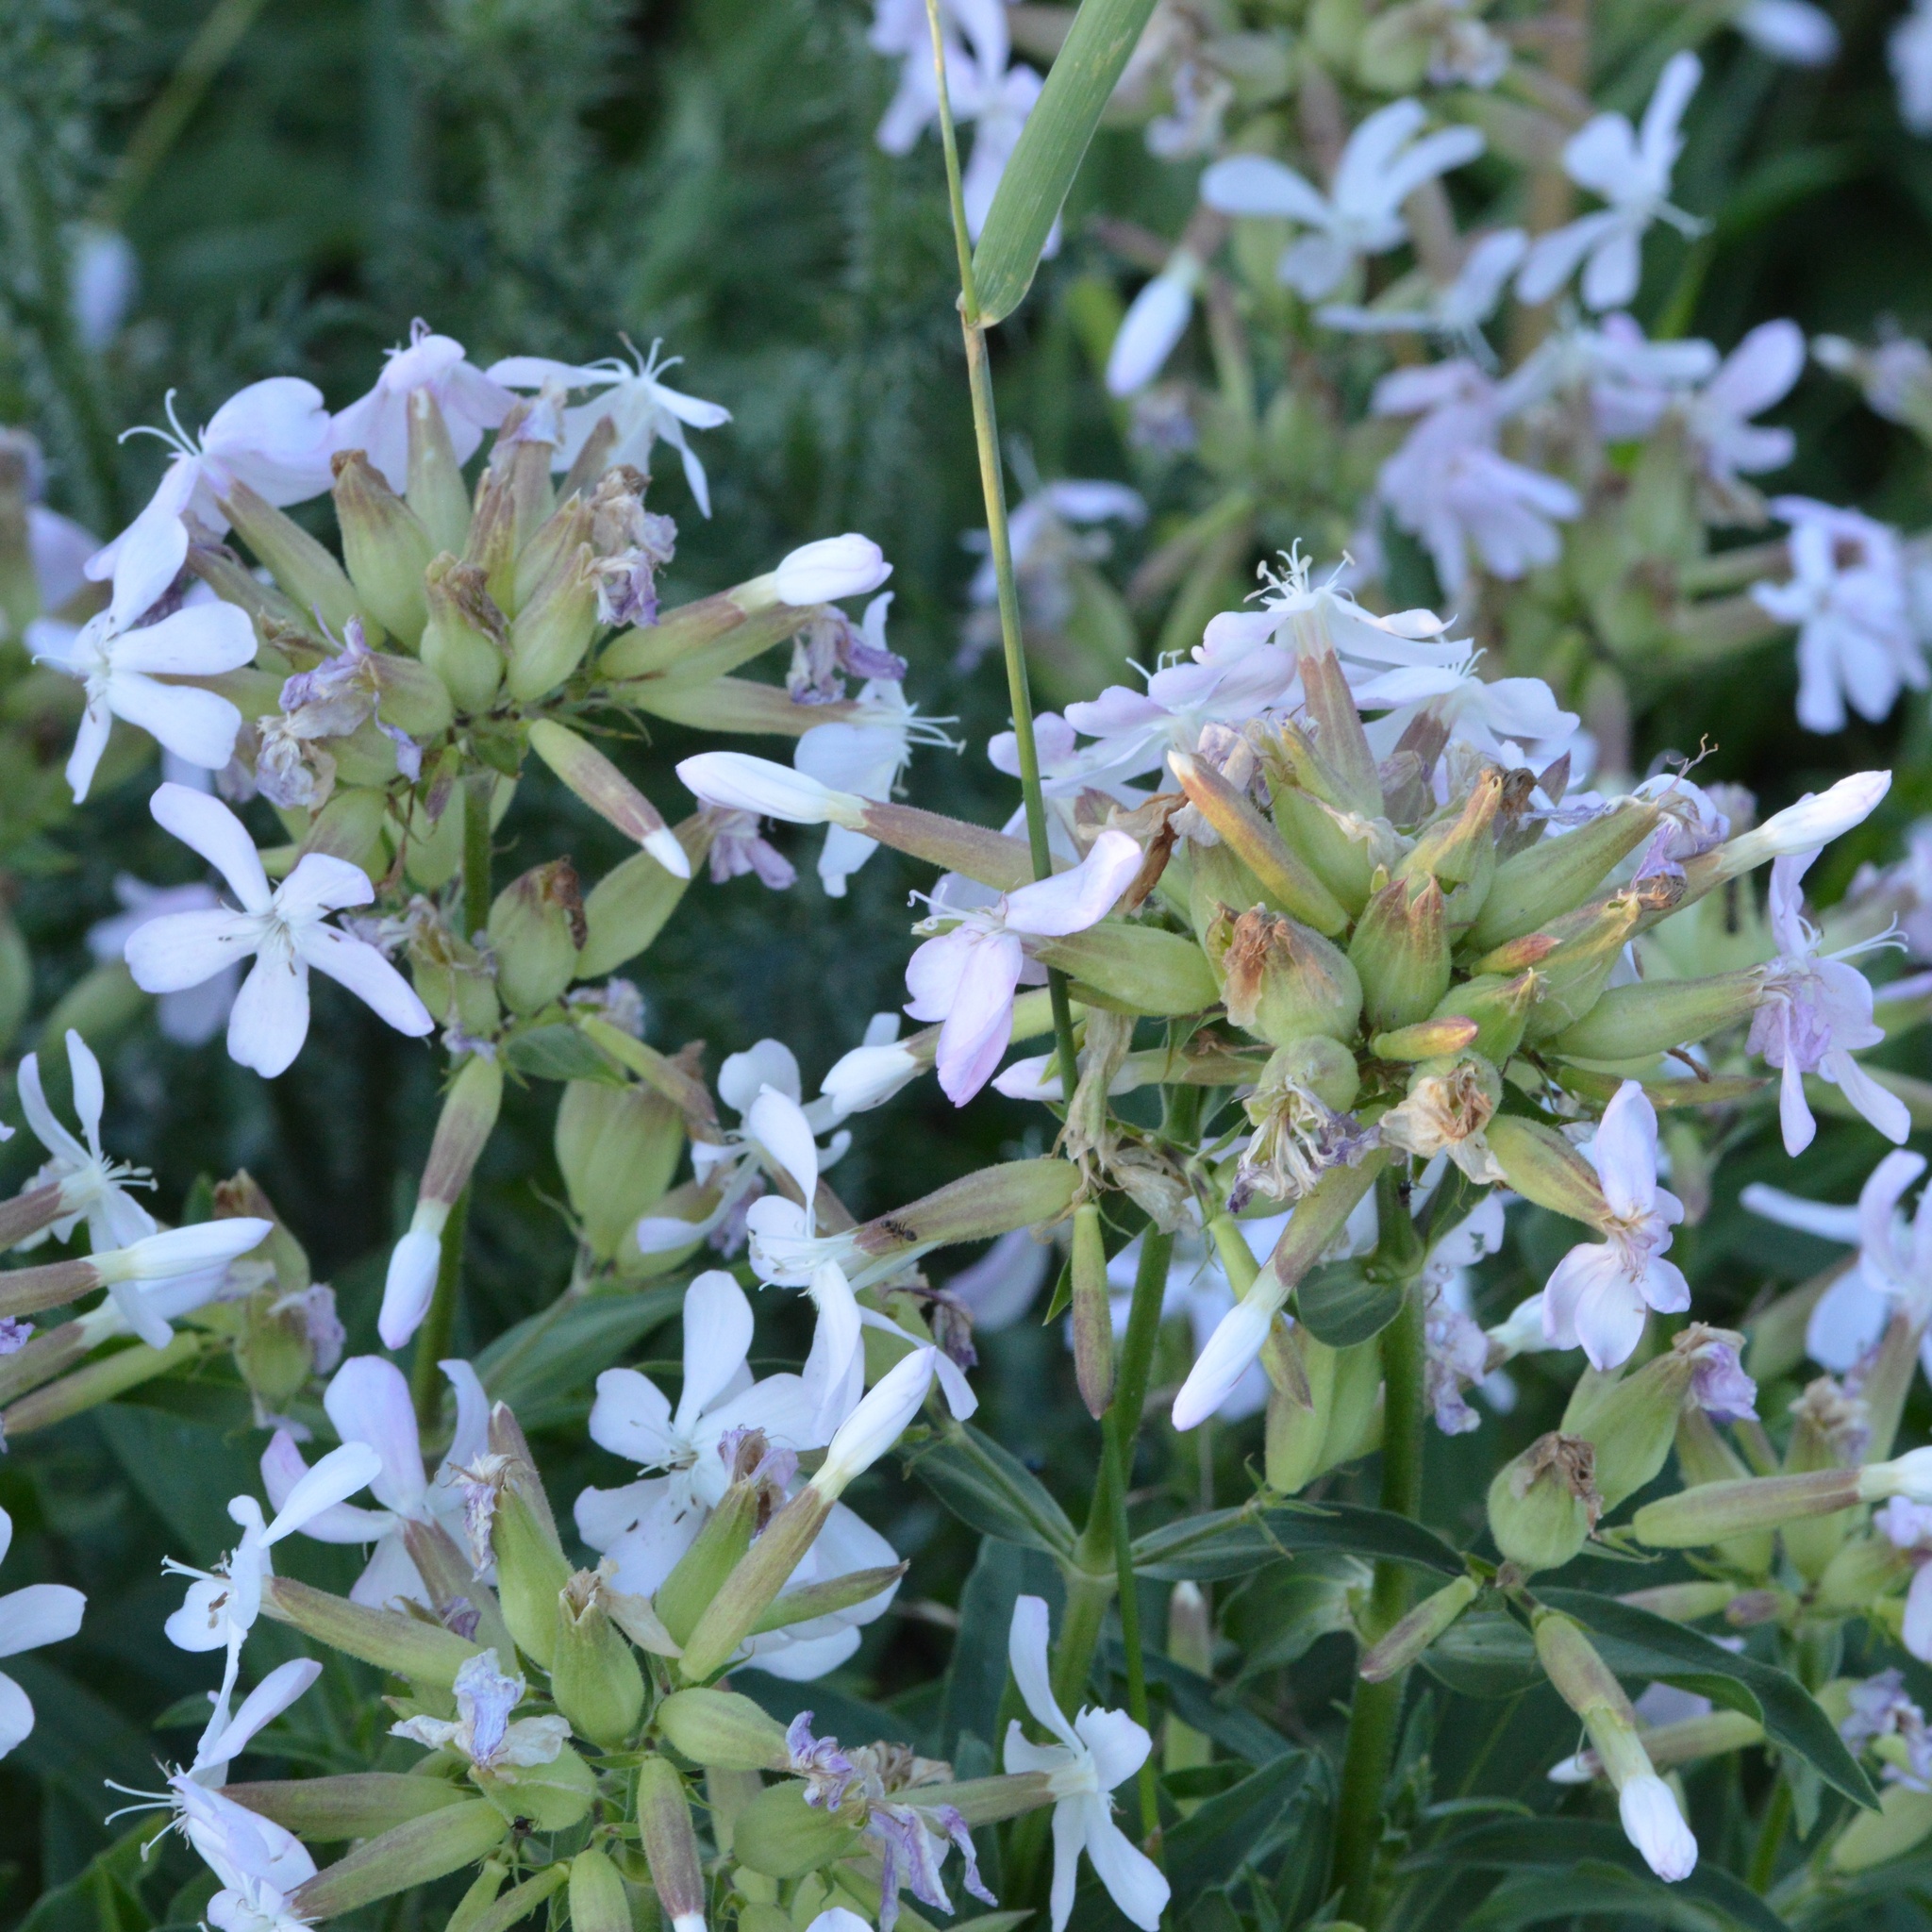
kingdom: Plantae
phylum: Tracheophyta
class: Magnoliopsida
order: Caryophyllales
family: Caryophyllaceae
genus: Saponaria
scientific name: Saponaria officinalis
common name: Soapwort
